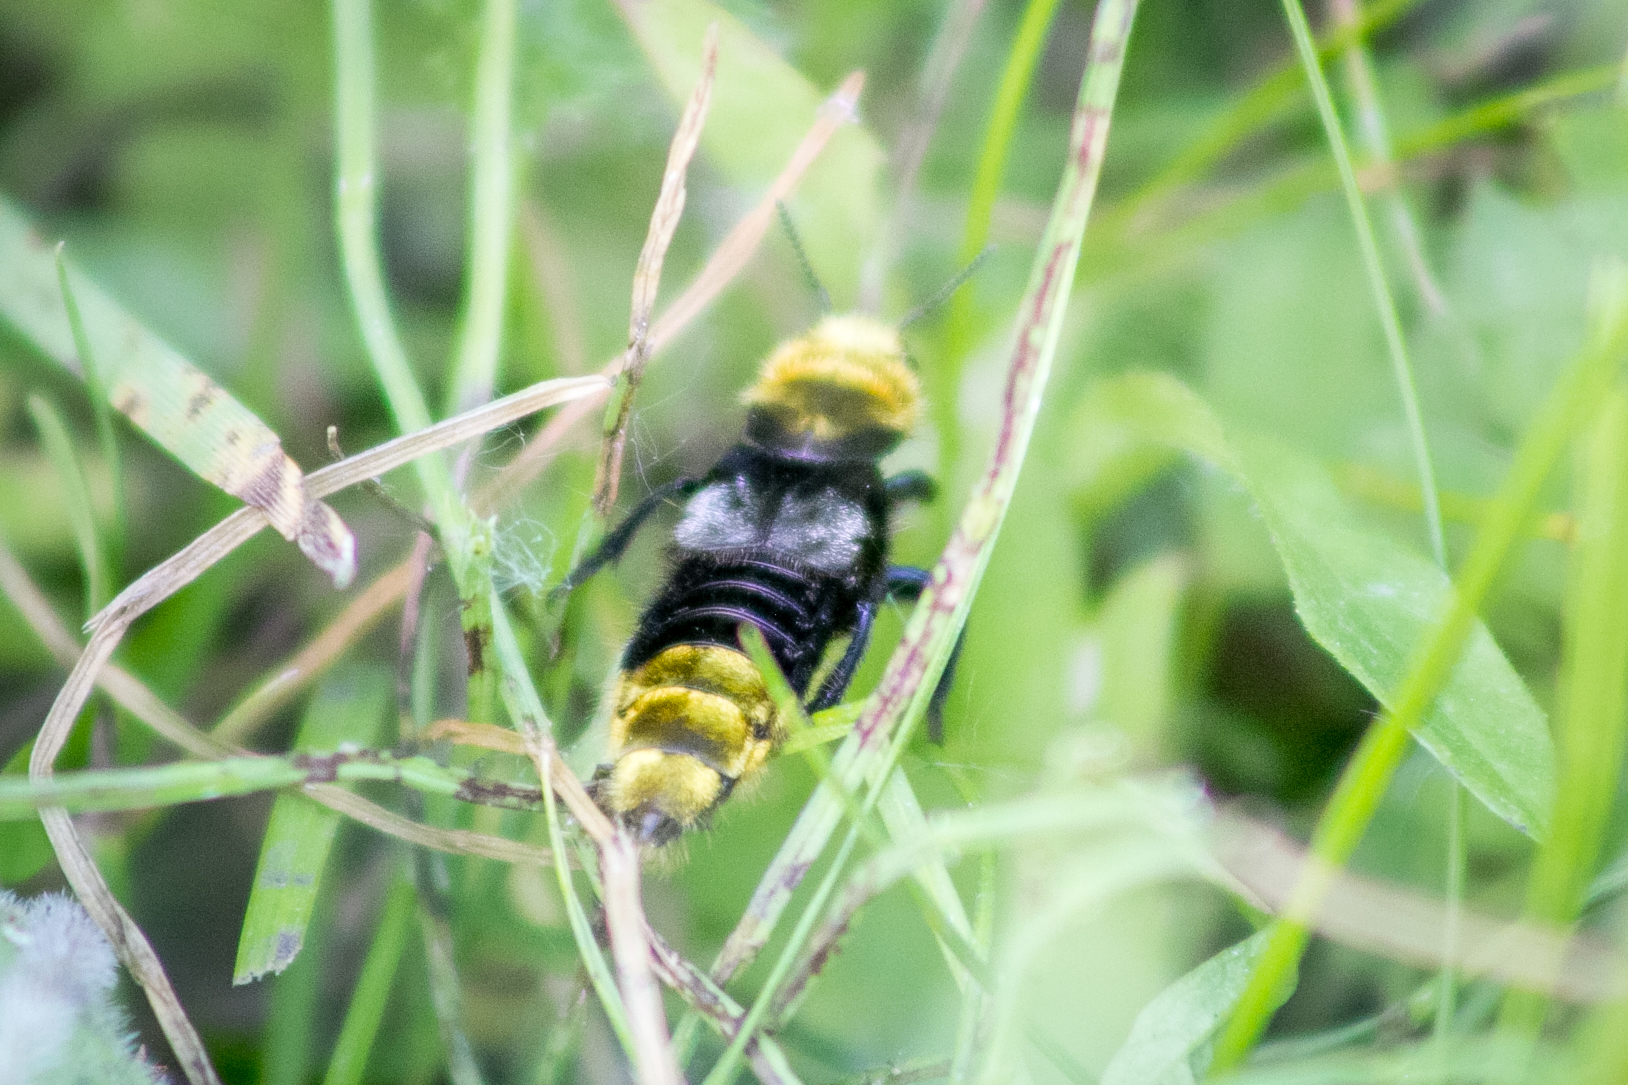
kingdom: Animalia
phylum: Arthropoda
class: Insecta
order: Coleoptera
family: Staphylinidae
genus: Emus
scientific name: Emus hirtus
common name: Hairy rove-beetle
